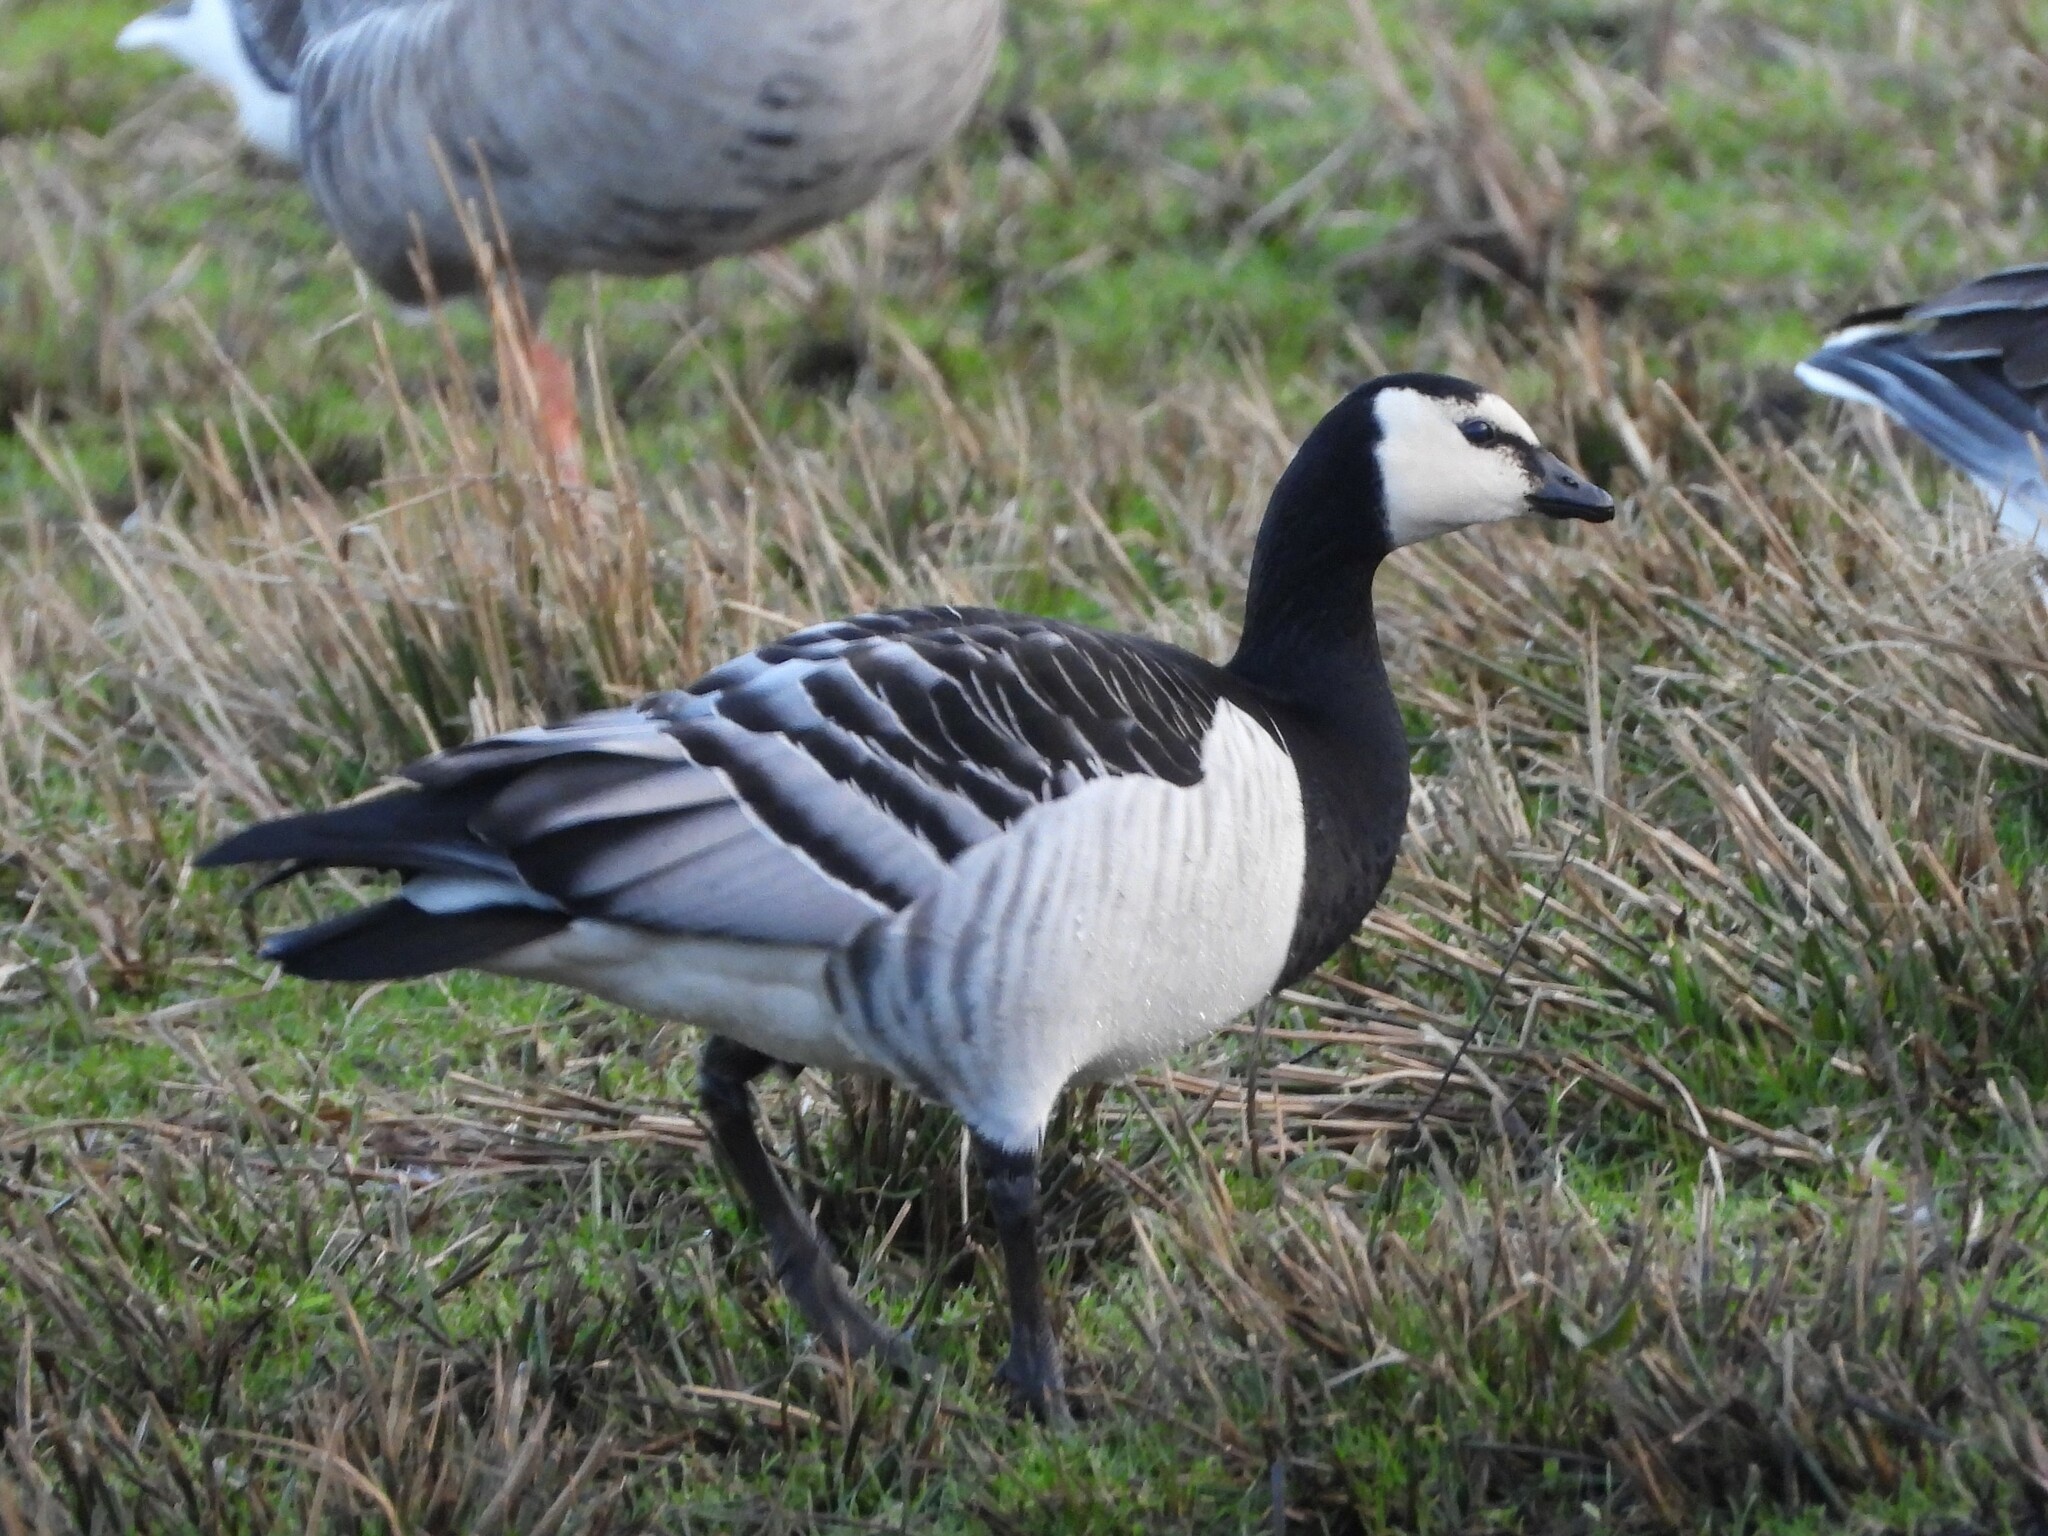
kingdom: Animalia
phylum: Chordata
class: Aves
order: Anseriformes
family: Anatidae
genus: Branta
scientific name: Branta leucopsis
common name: Barnacle goose
